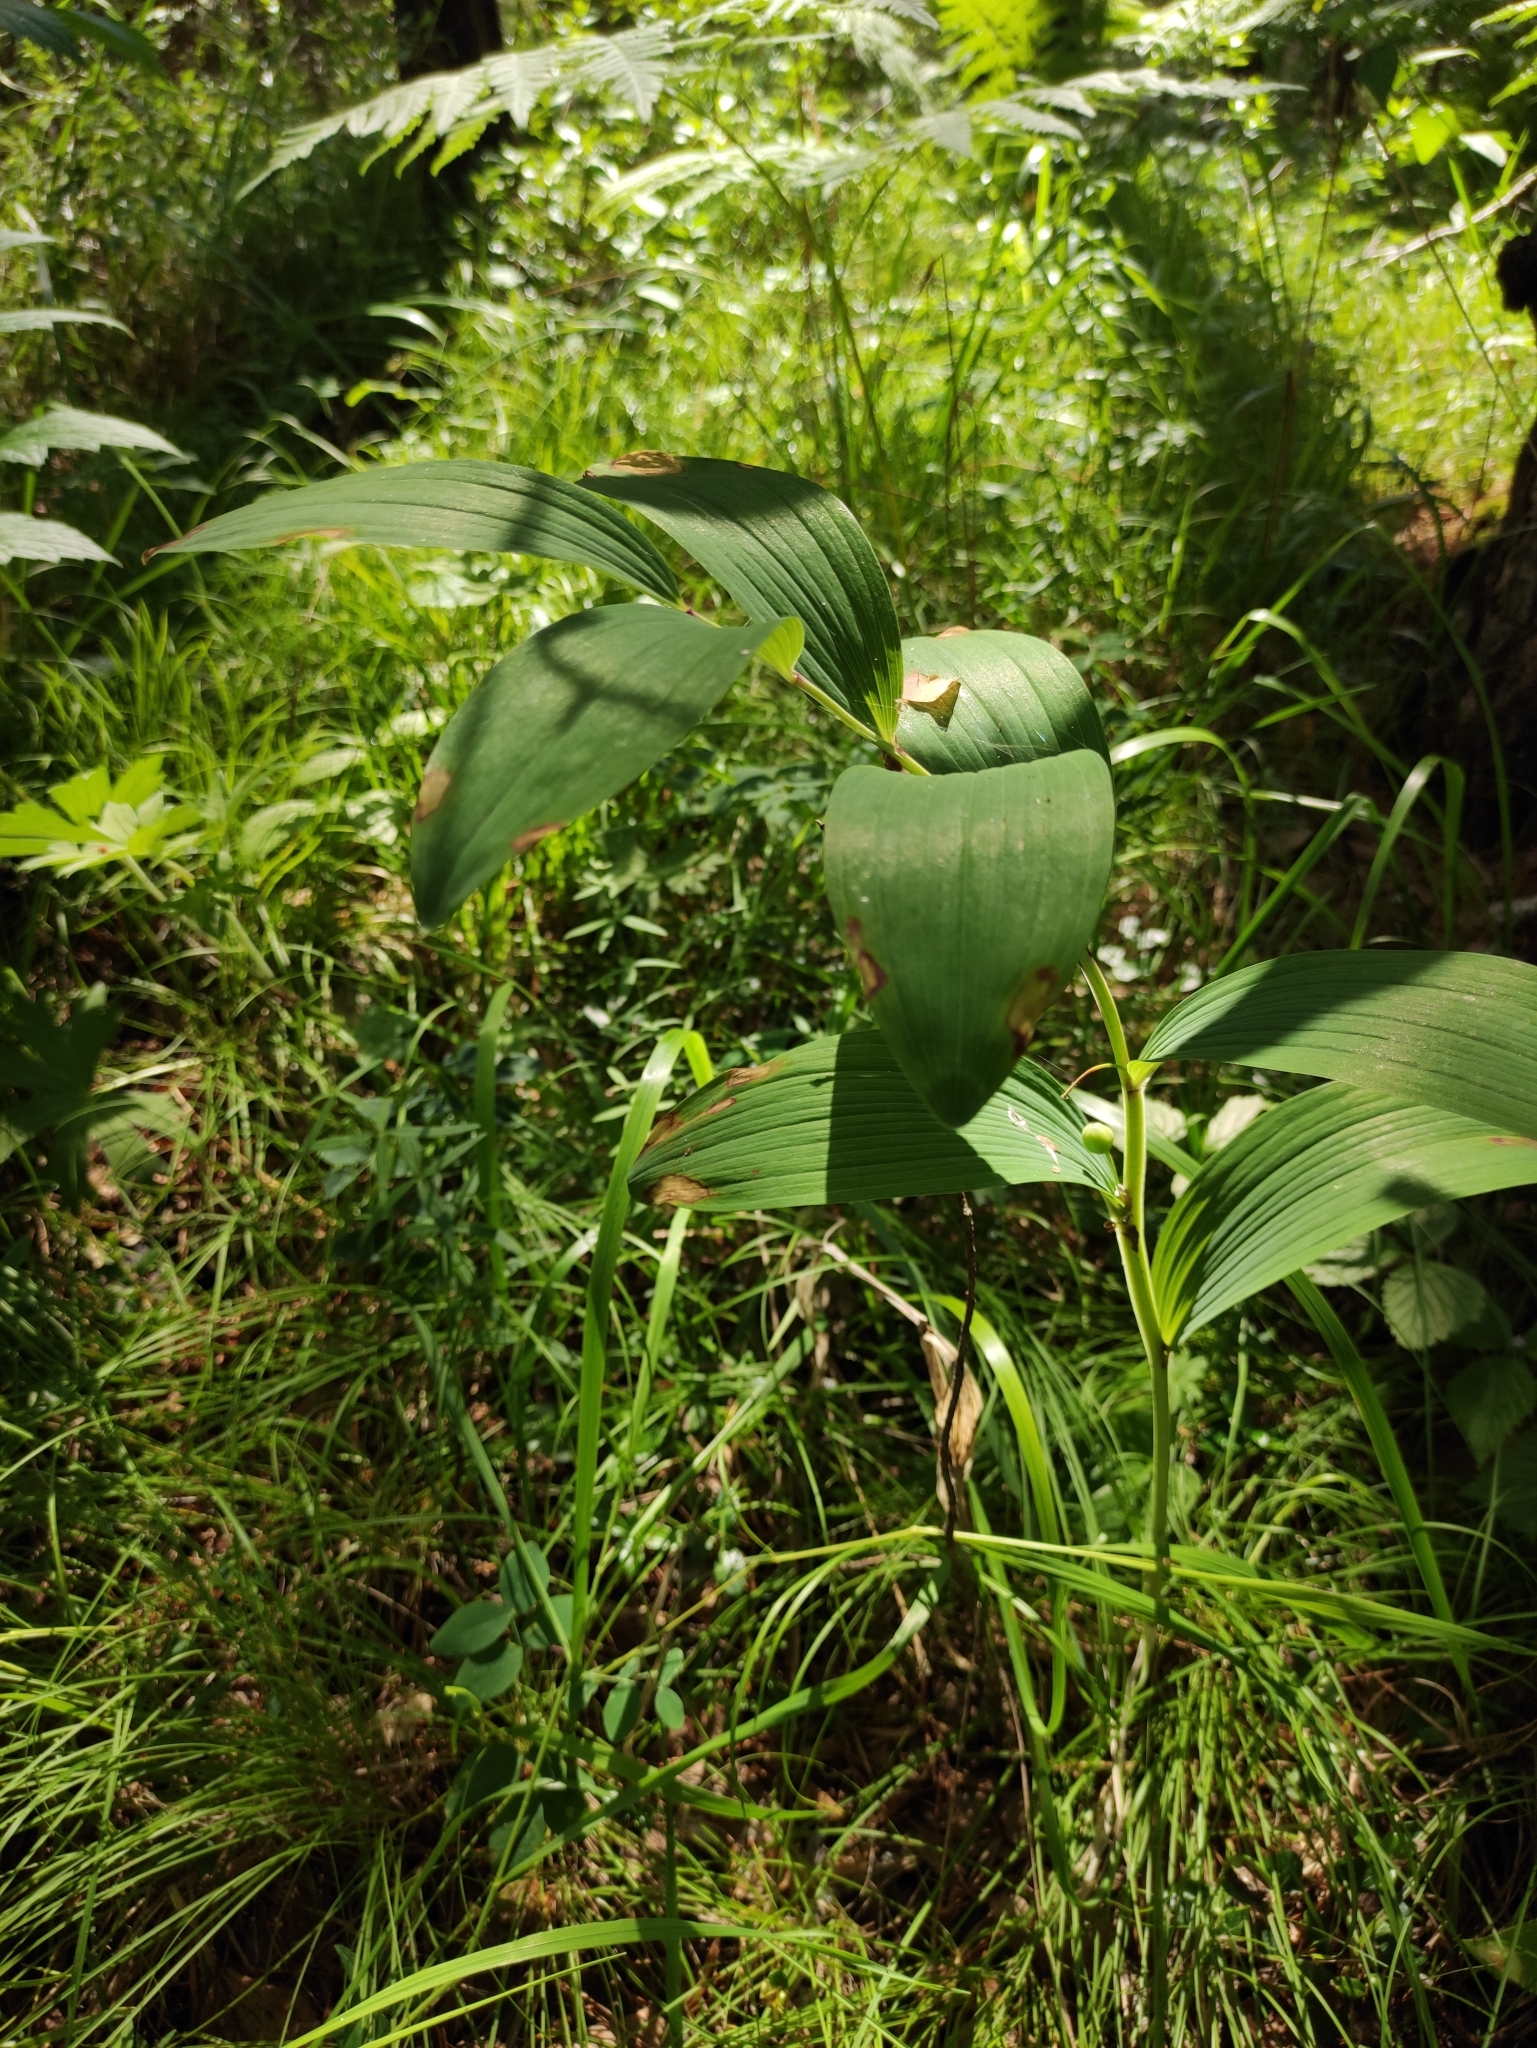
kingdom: Plantae
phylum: Tracheophyta
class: Liliopsida
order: Asparagales
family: Asparagaceae
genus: Polygonatum
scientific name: Polygonatum odoratum
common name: Angular solomon's-seal
